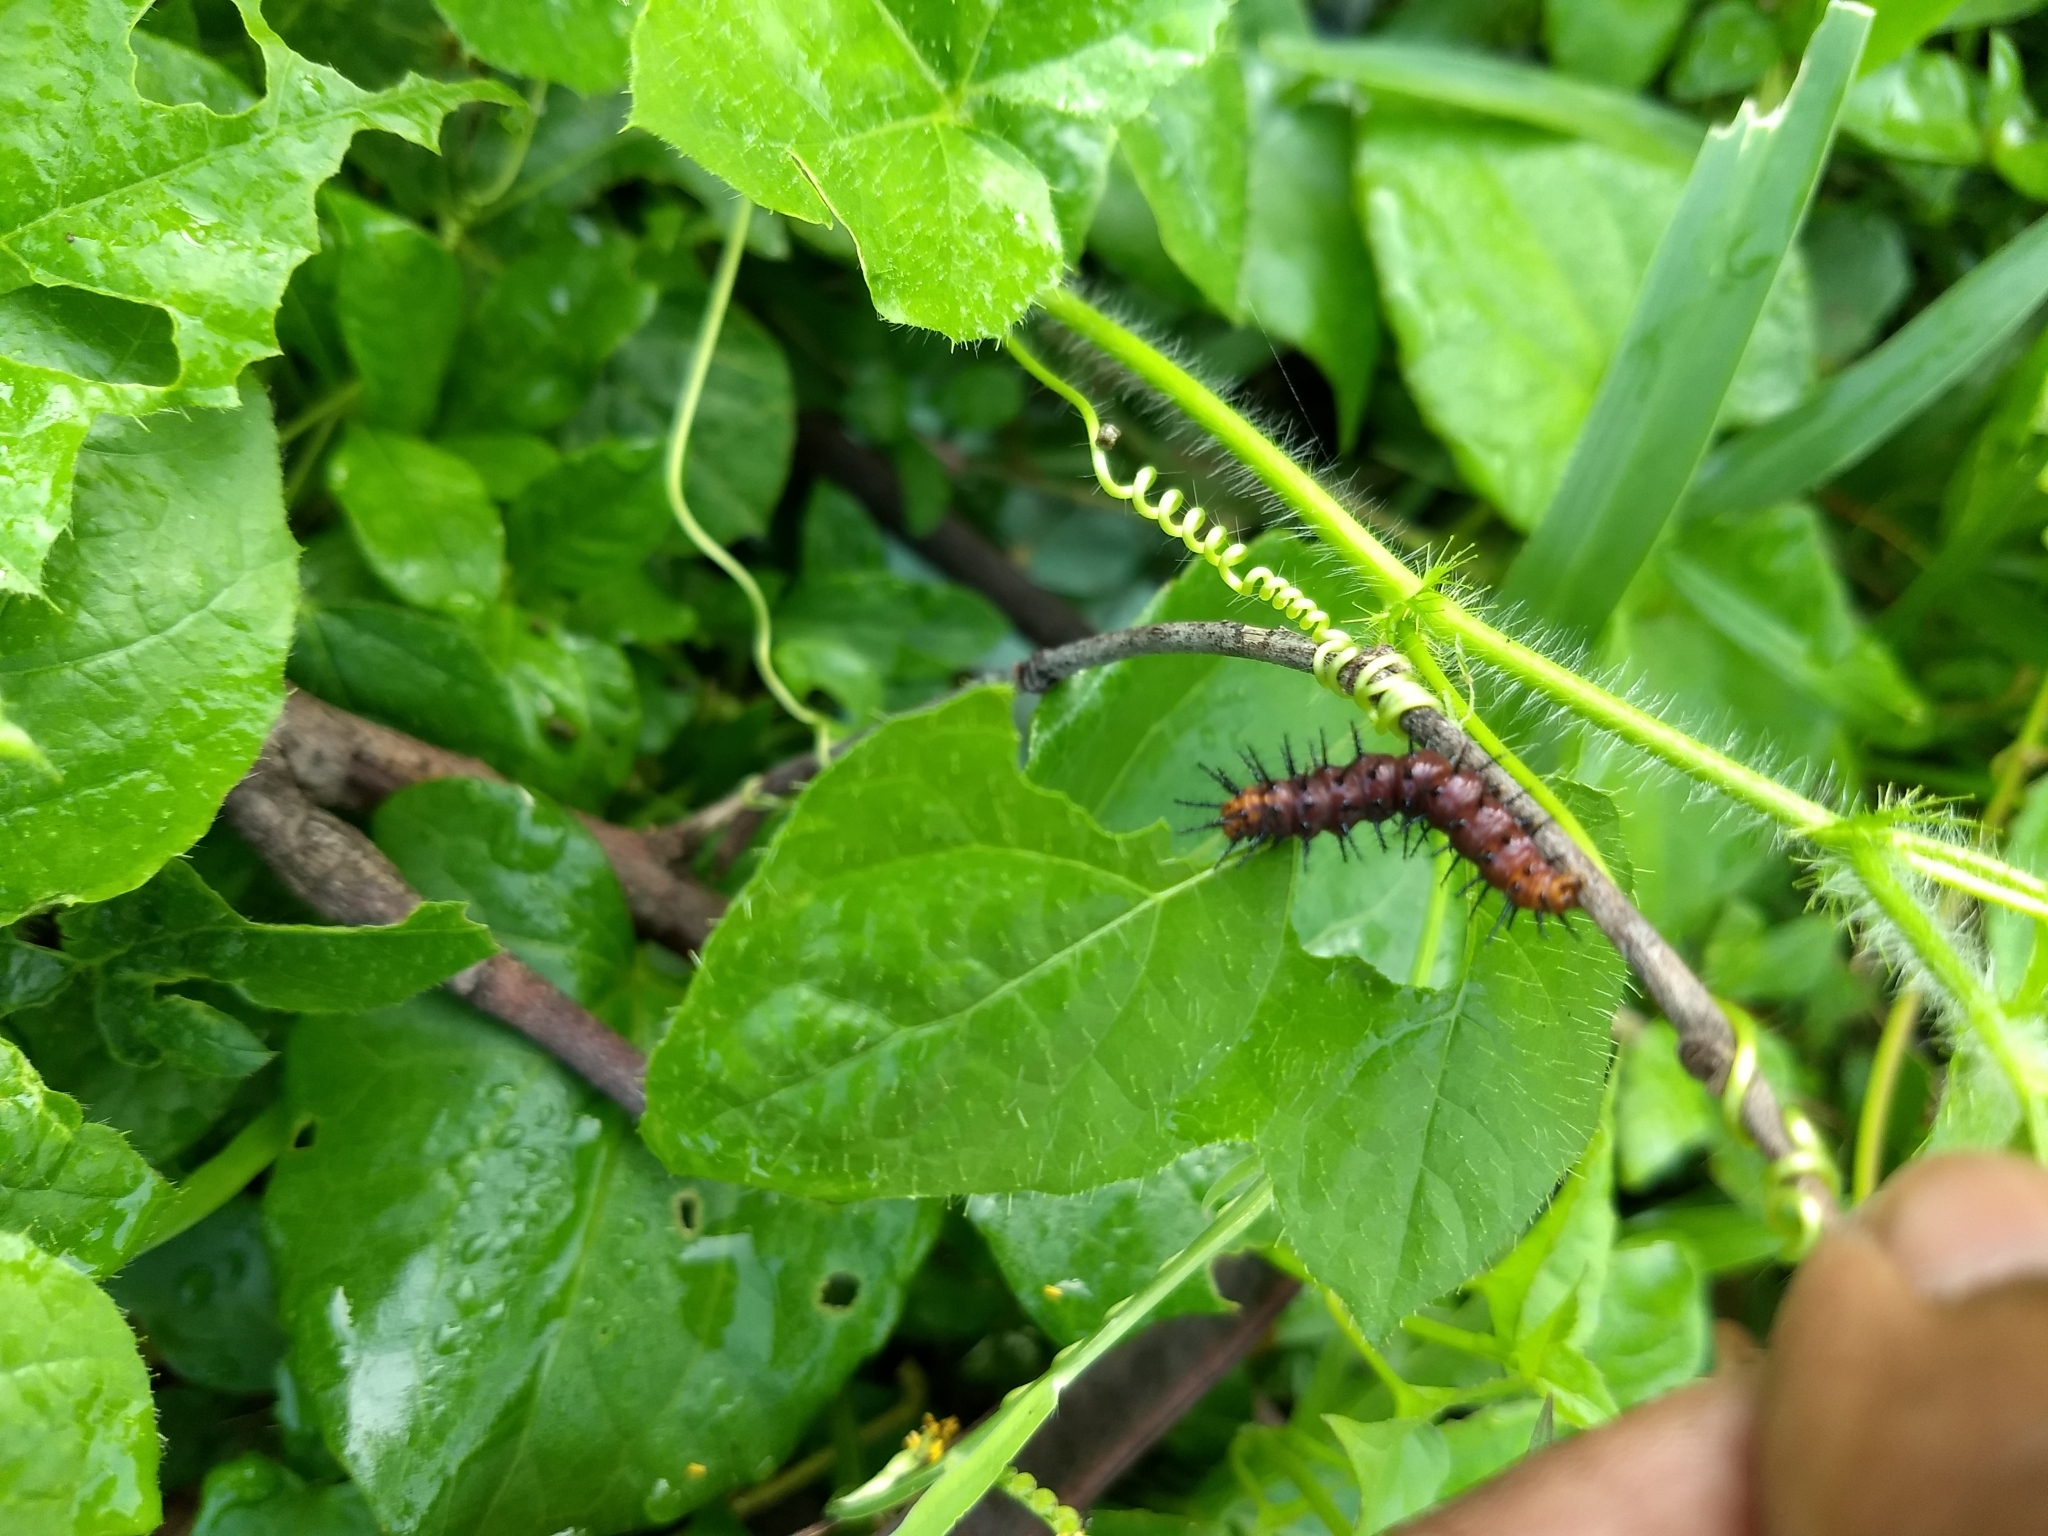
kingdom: Animalia
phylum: Arthropoda
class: Insecta
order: Lepidoptera
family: Nymphalidae
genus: Acraea
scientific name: Acraea terpsicore
